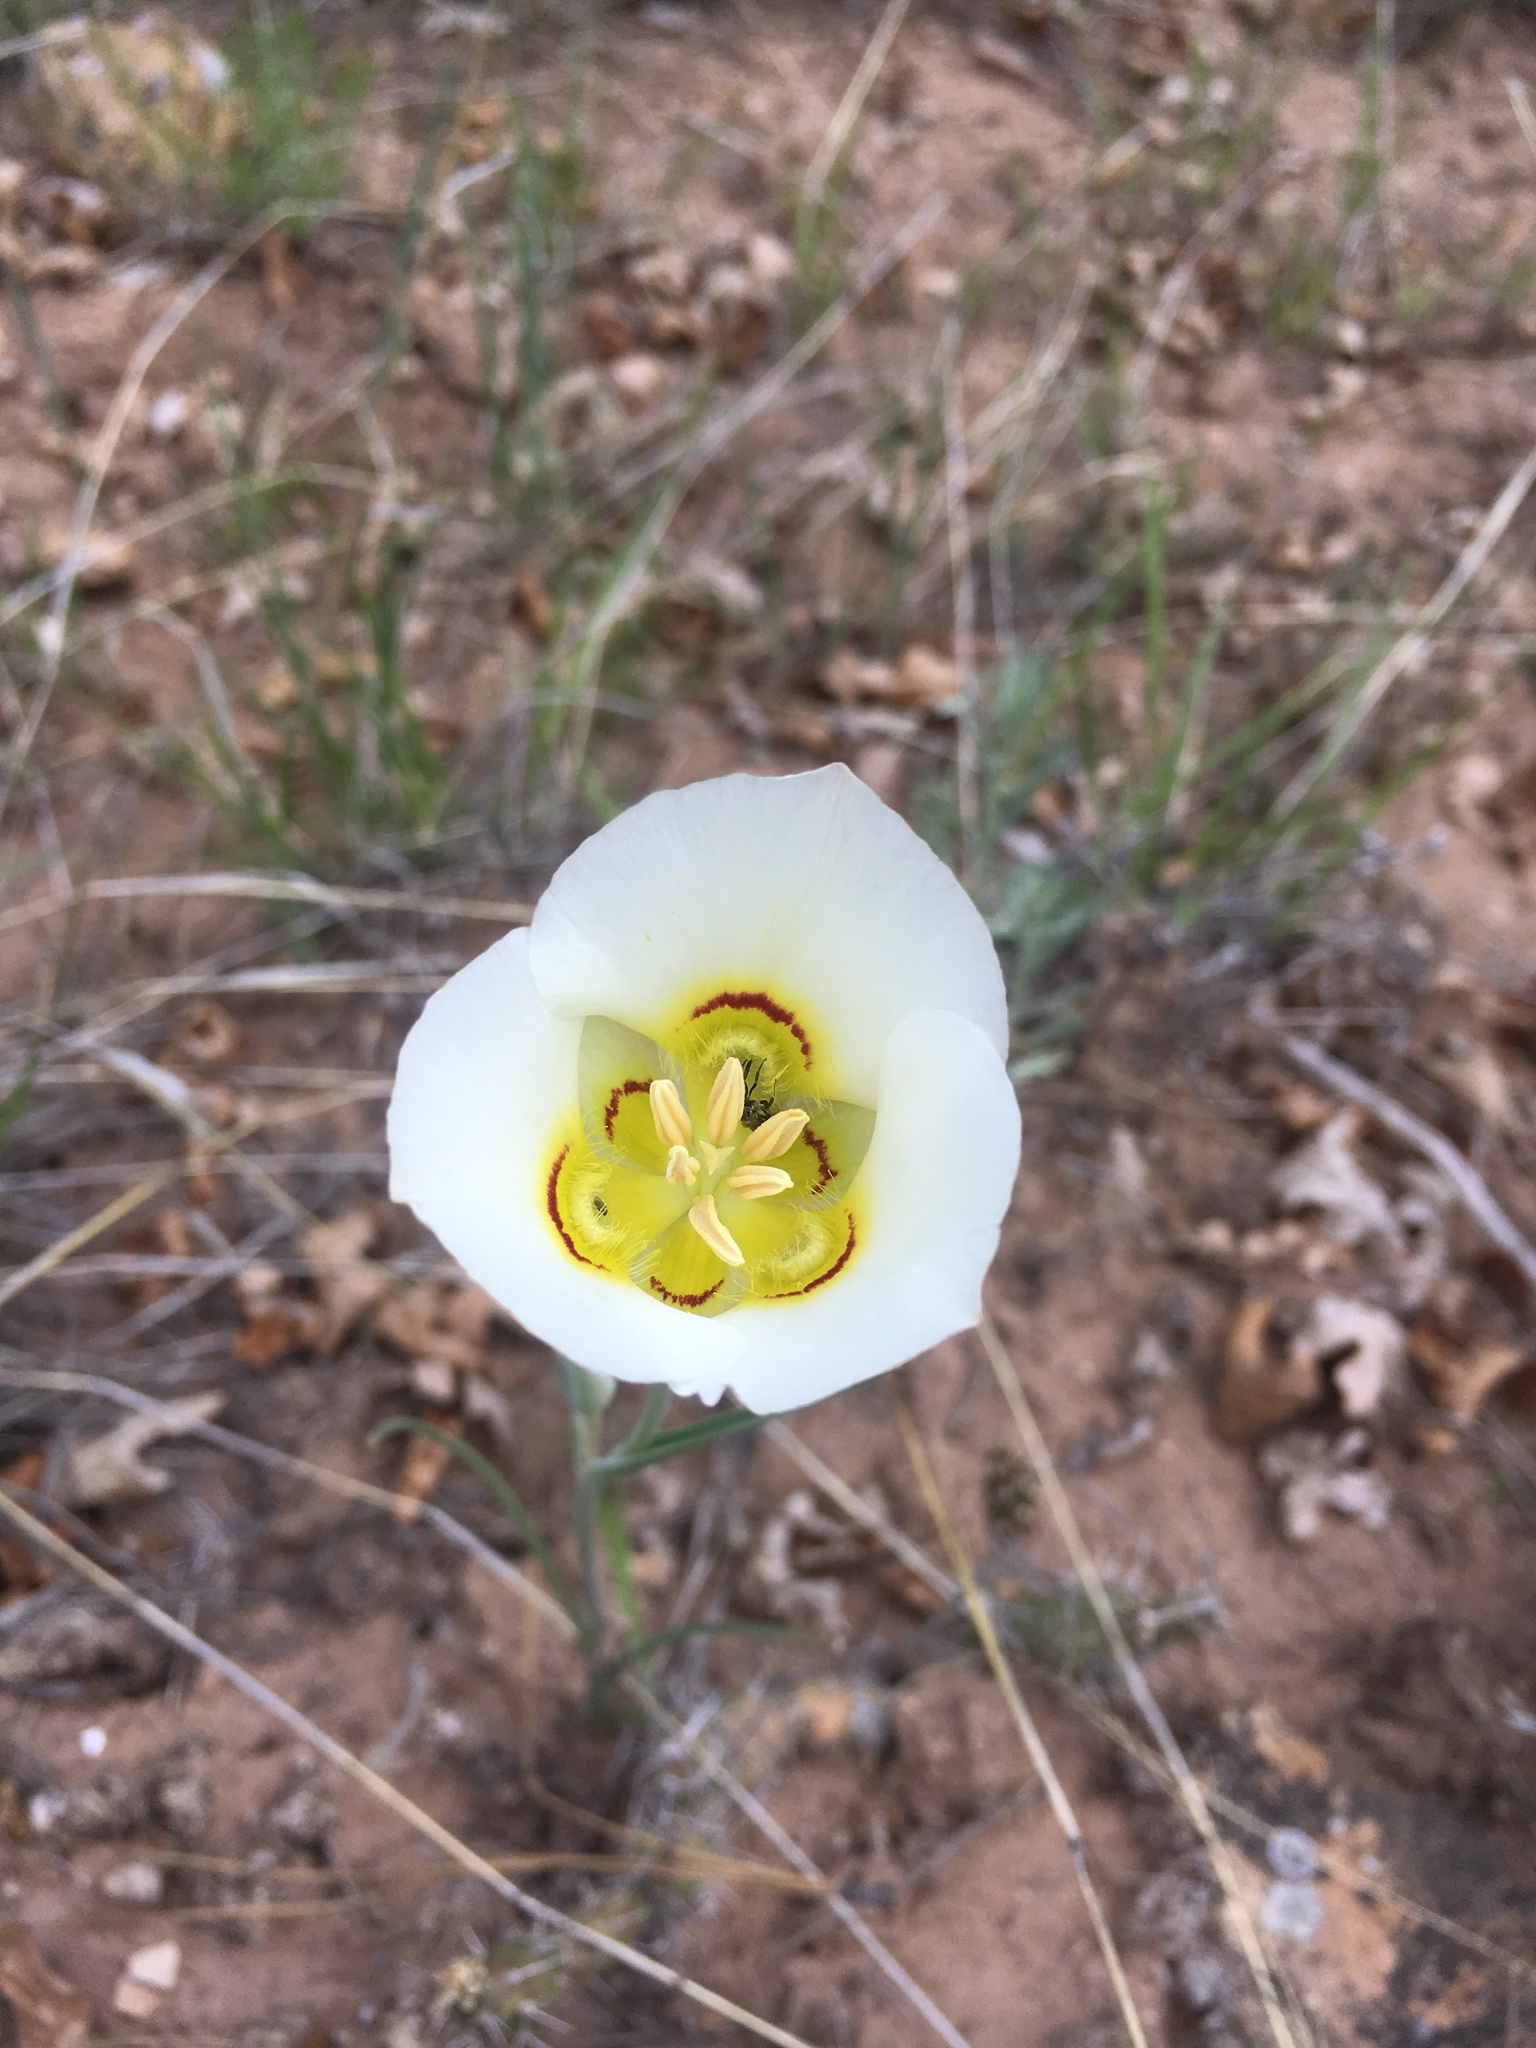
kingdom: Plantae
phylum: Tracheophyta
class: Liliopsida
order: Liliales
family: Liliaceae
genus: Calochortus
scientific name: Calochortus nuttallii
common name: Sego-lily
